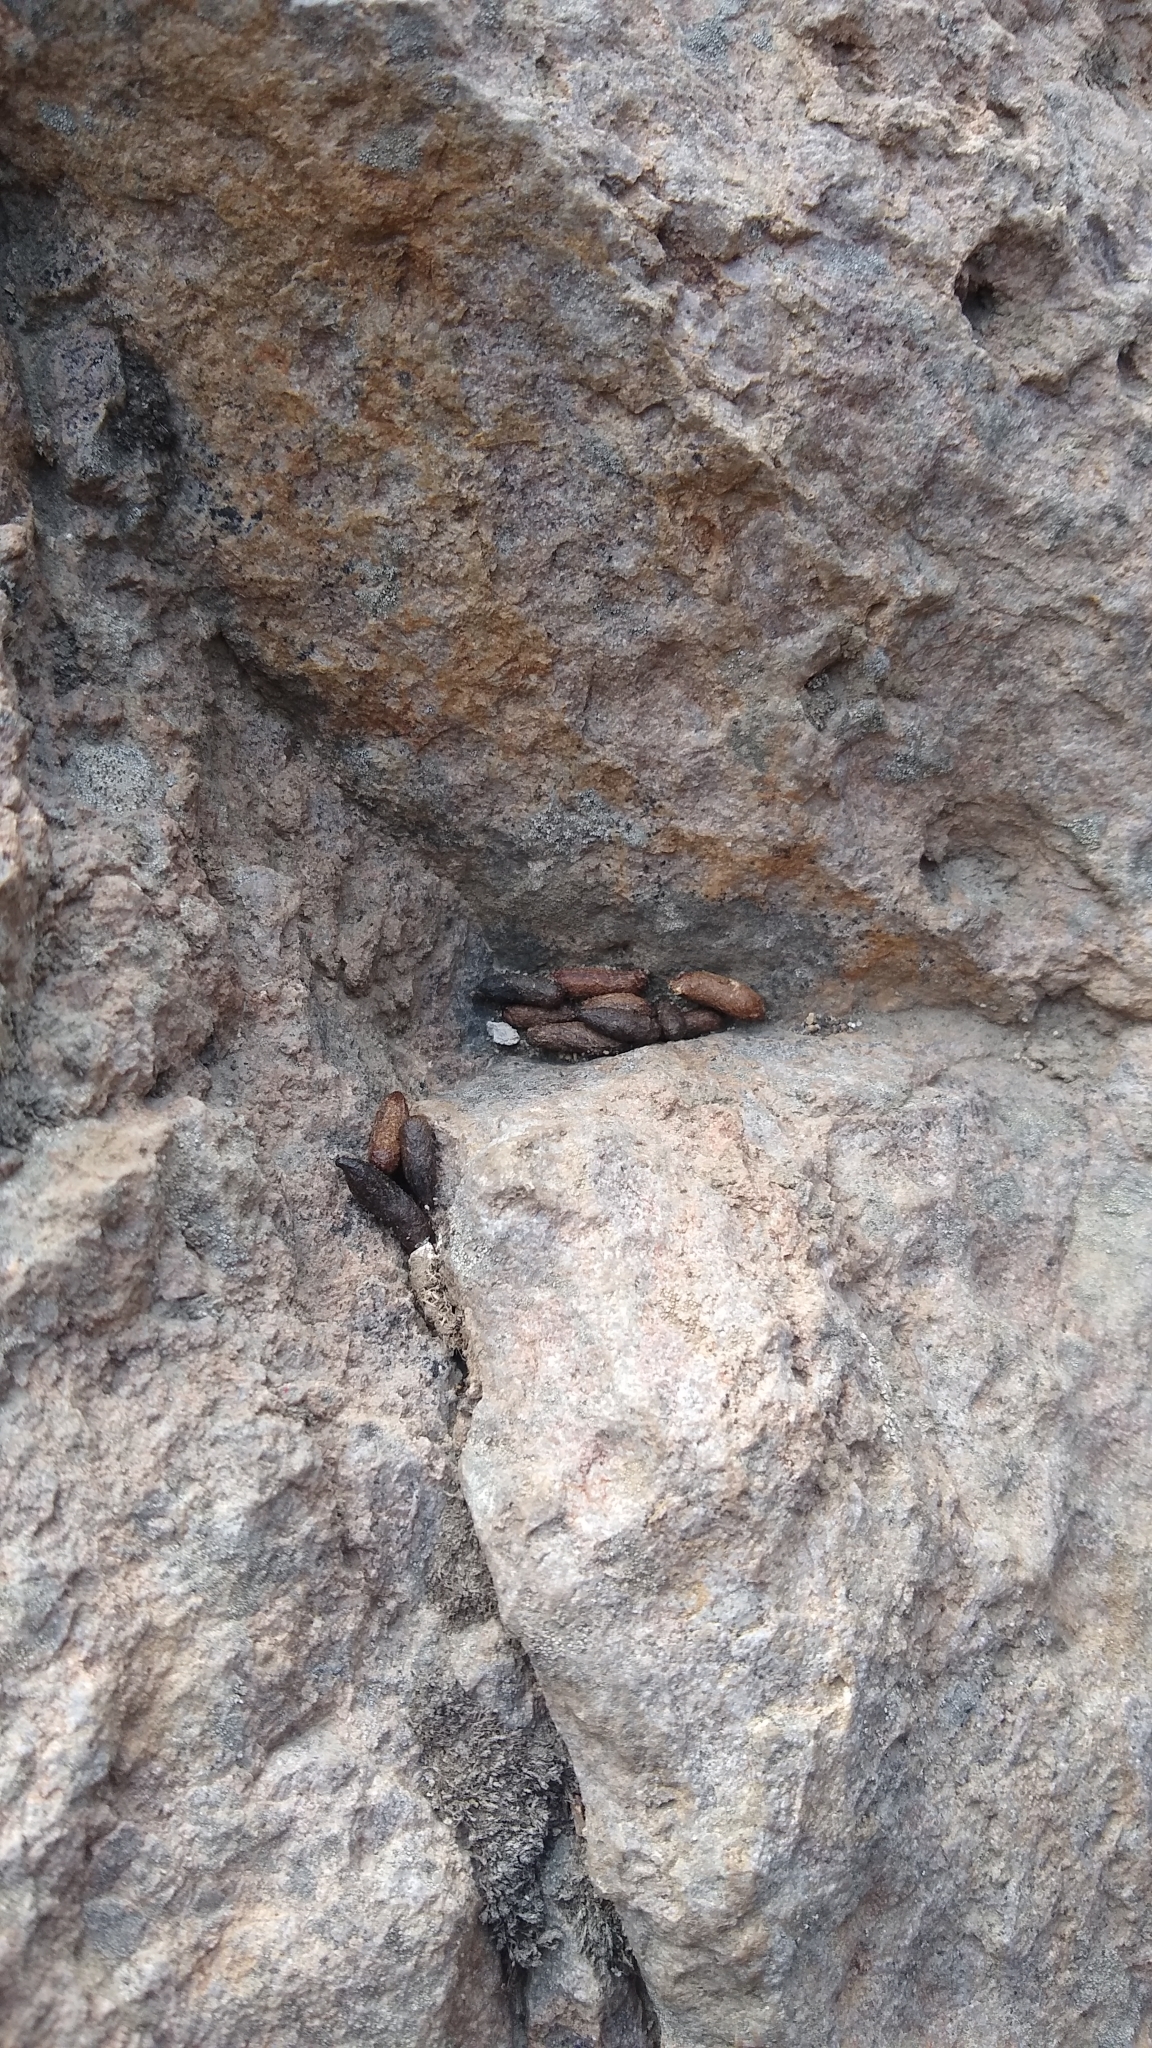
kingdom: Animalia
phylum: Chordata
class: Mammalia
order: Rodentia
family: Chinchillidae
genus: Lagidium
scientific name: Lagidium viscacia
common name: Southern viscacha
